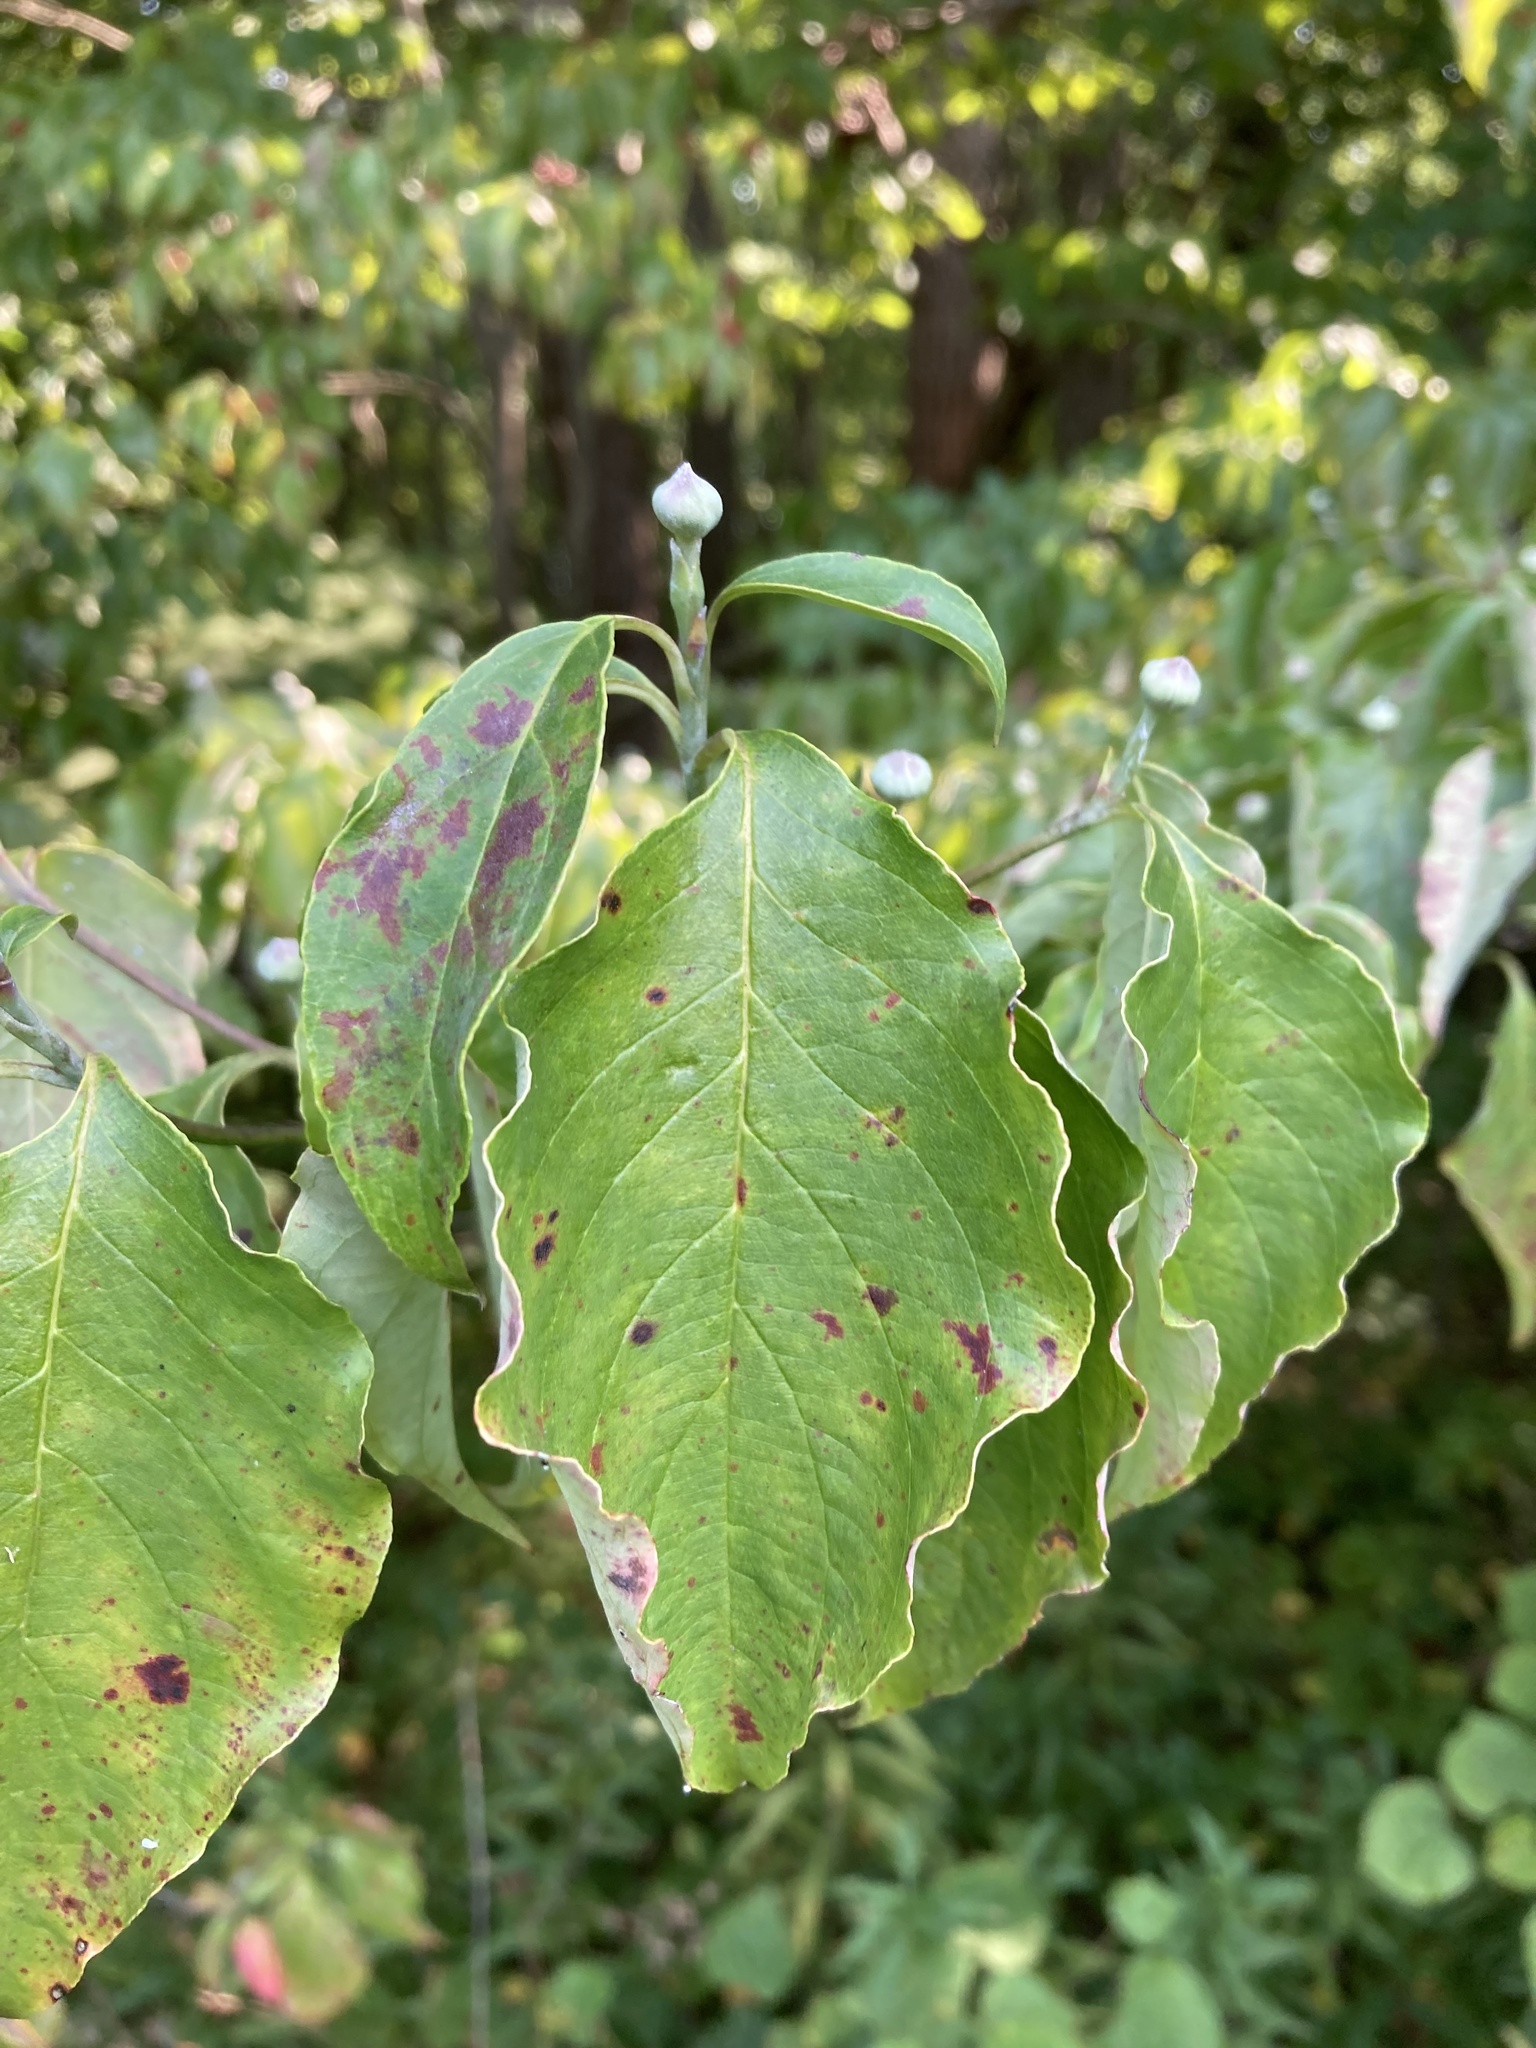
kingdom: Plantae
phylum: Tracheophyta
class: Magnoliopsida
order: Cornales
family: Cornaceae
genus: Cornus
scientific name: Cornus florida
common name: Flowering dogwood
